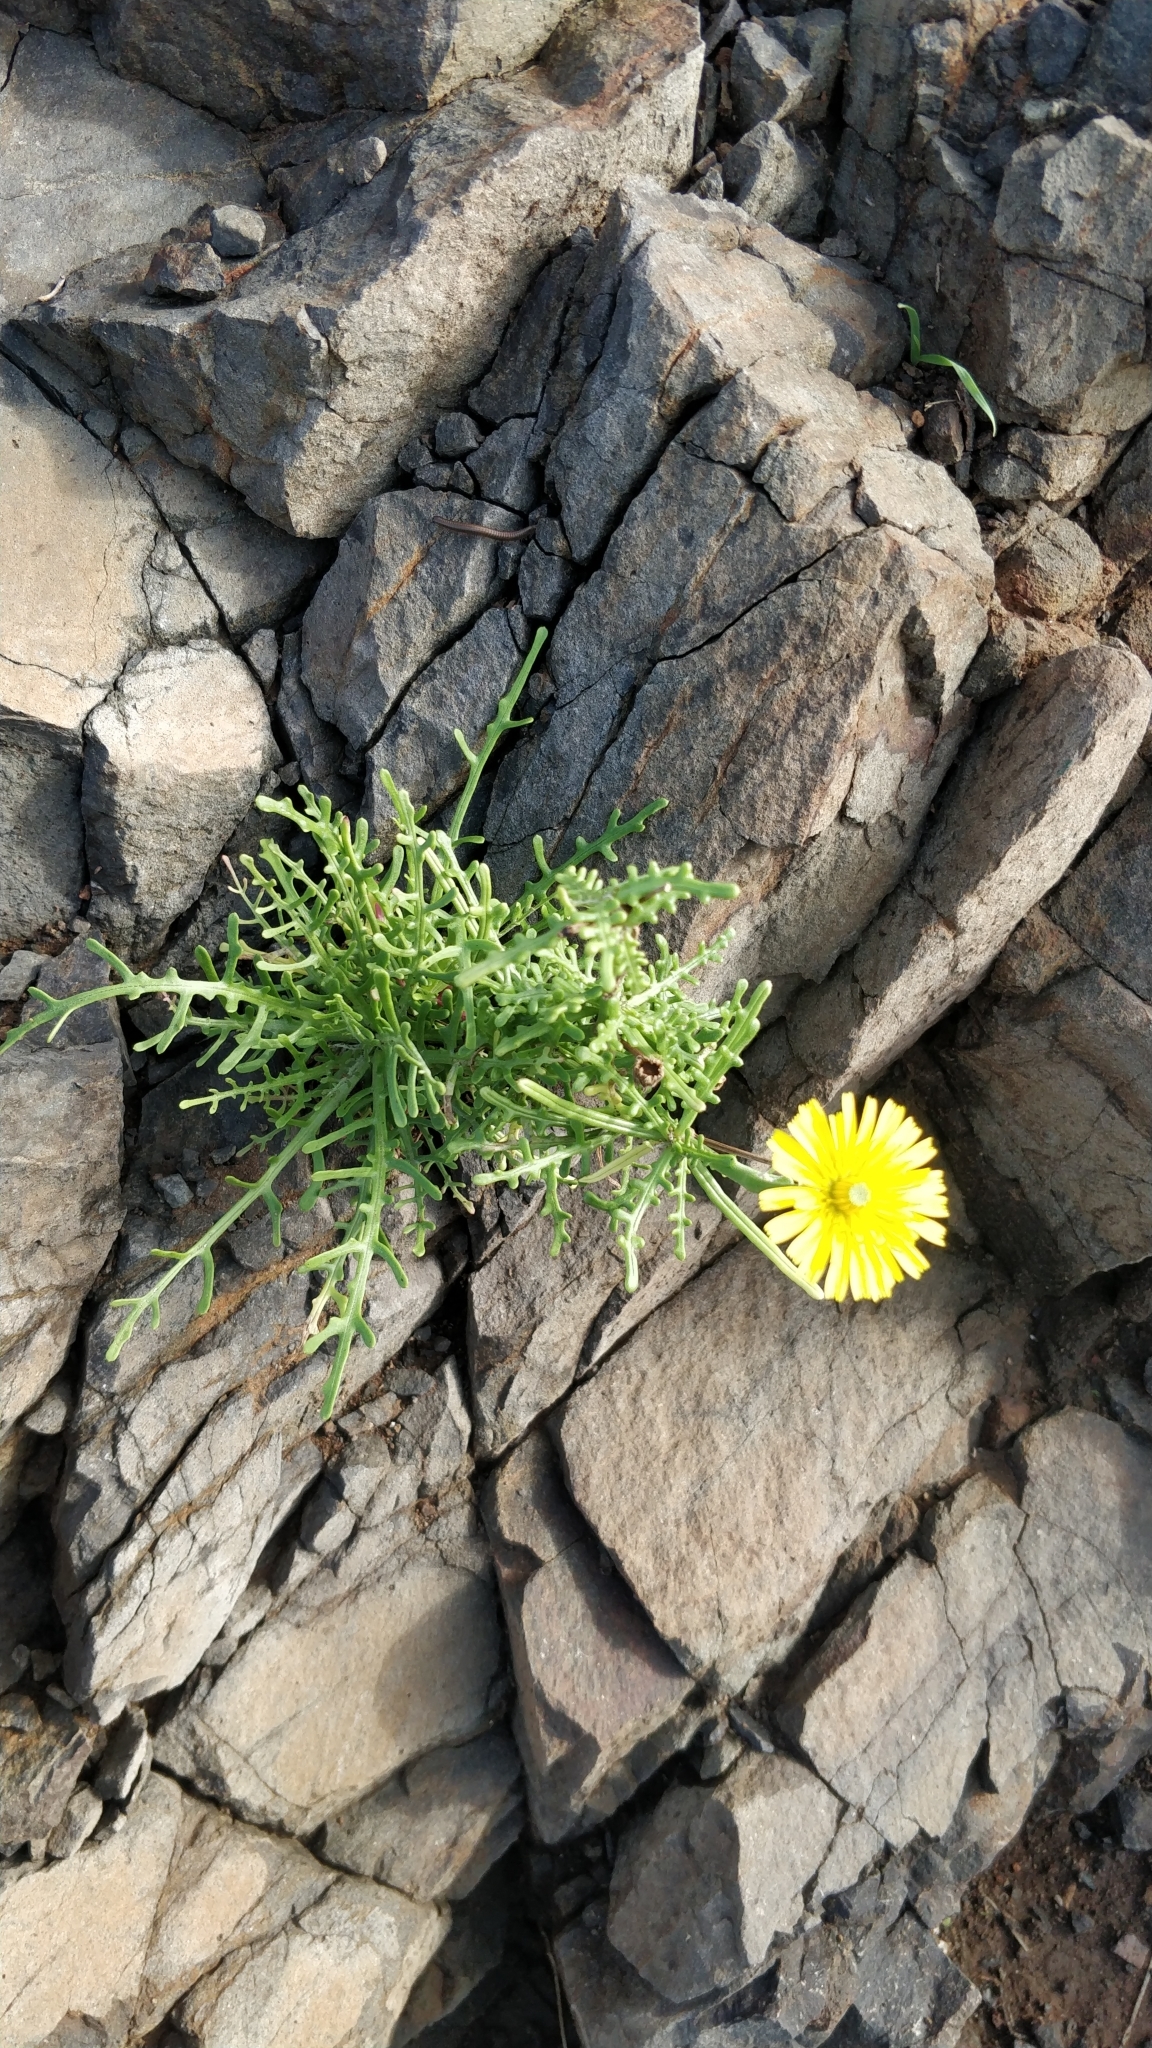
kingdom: Plantae
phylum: Tracheophyta
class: Magnoliopsida
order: Asterales
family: Asteraceae
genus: Tolpis
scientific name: Tolpis succulenta
